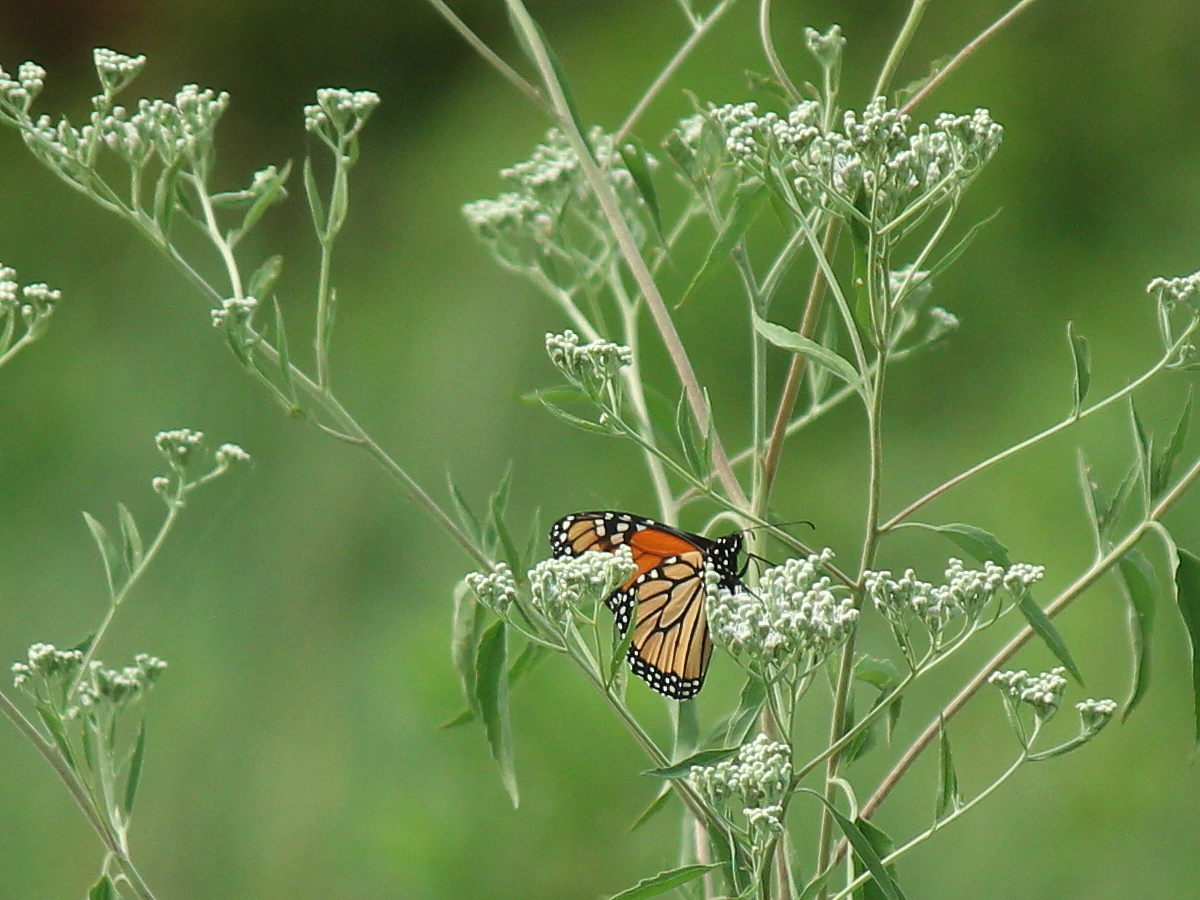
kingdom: Animalia
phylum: Arthropoda
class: Insecta
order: Lepidoptera
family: Nymphalidae
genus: Danaus
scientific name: Danaus plexippus
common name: Monarch
